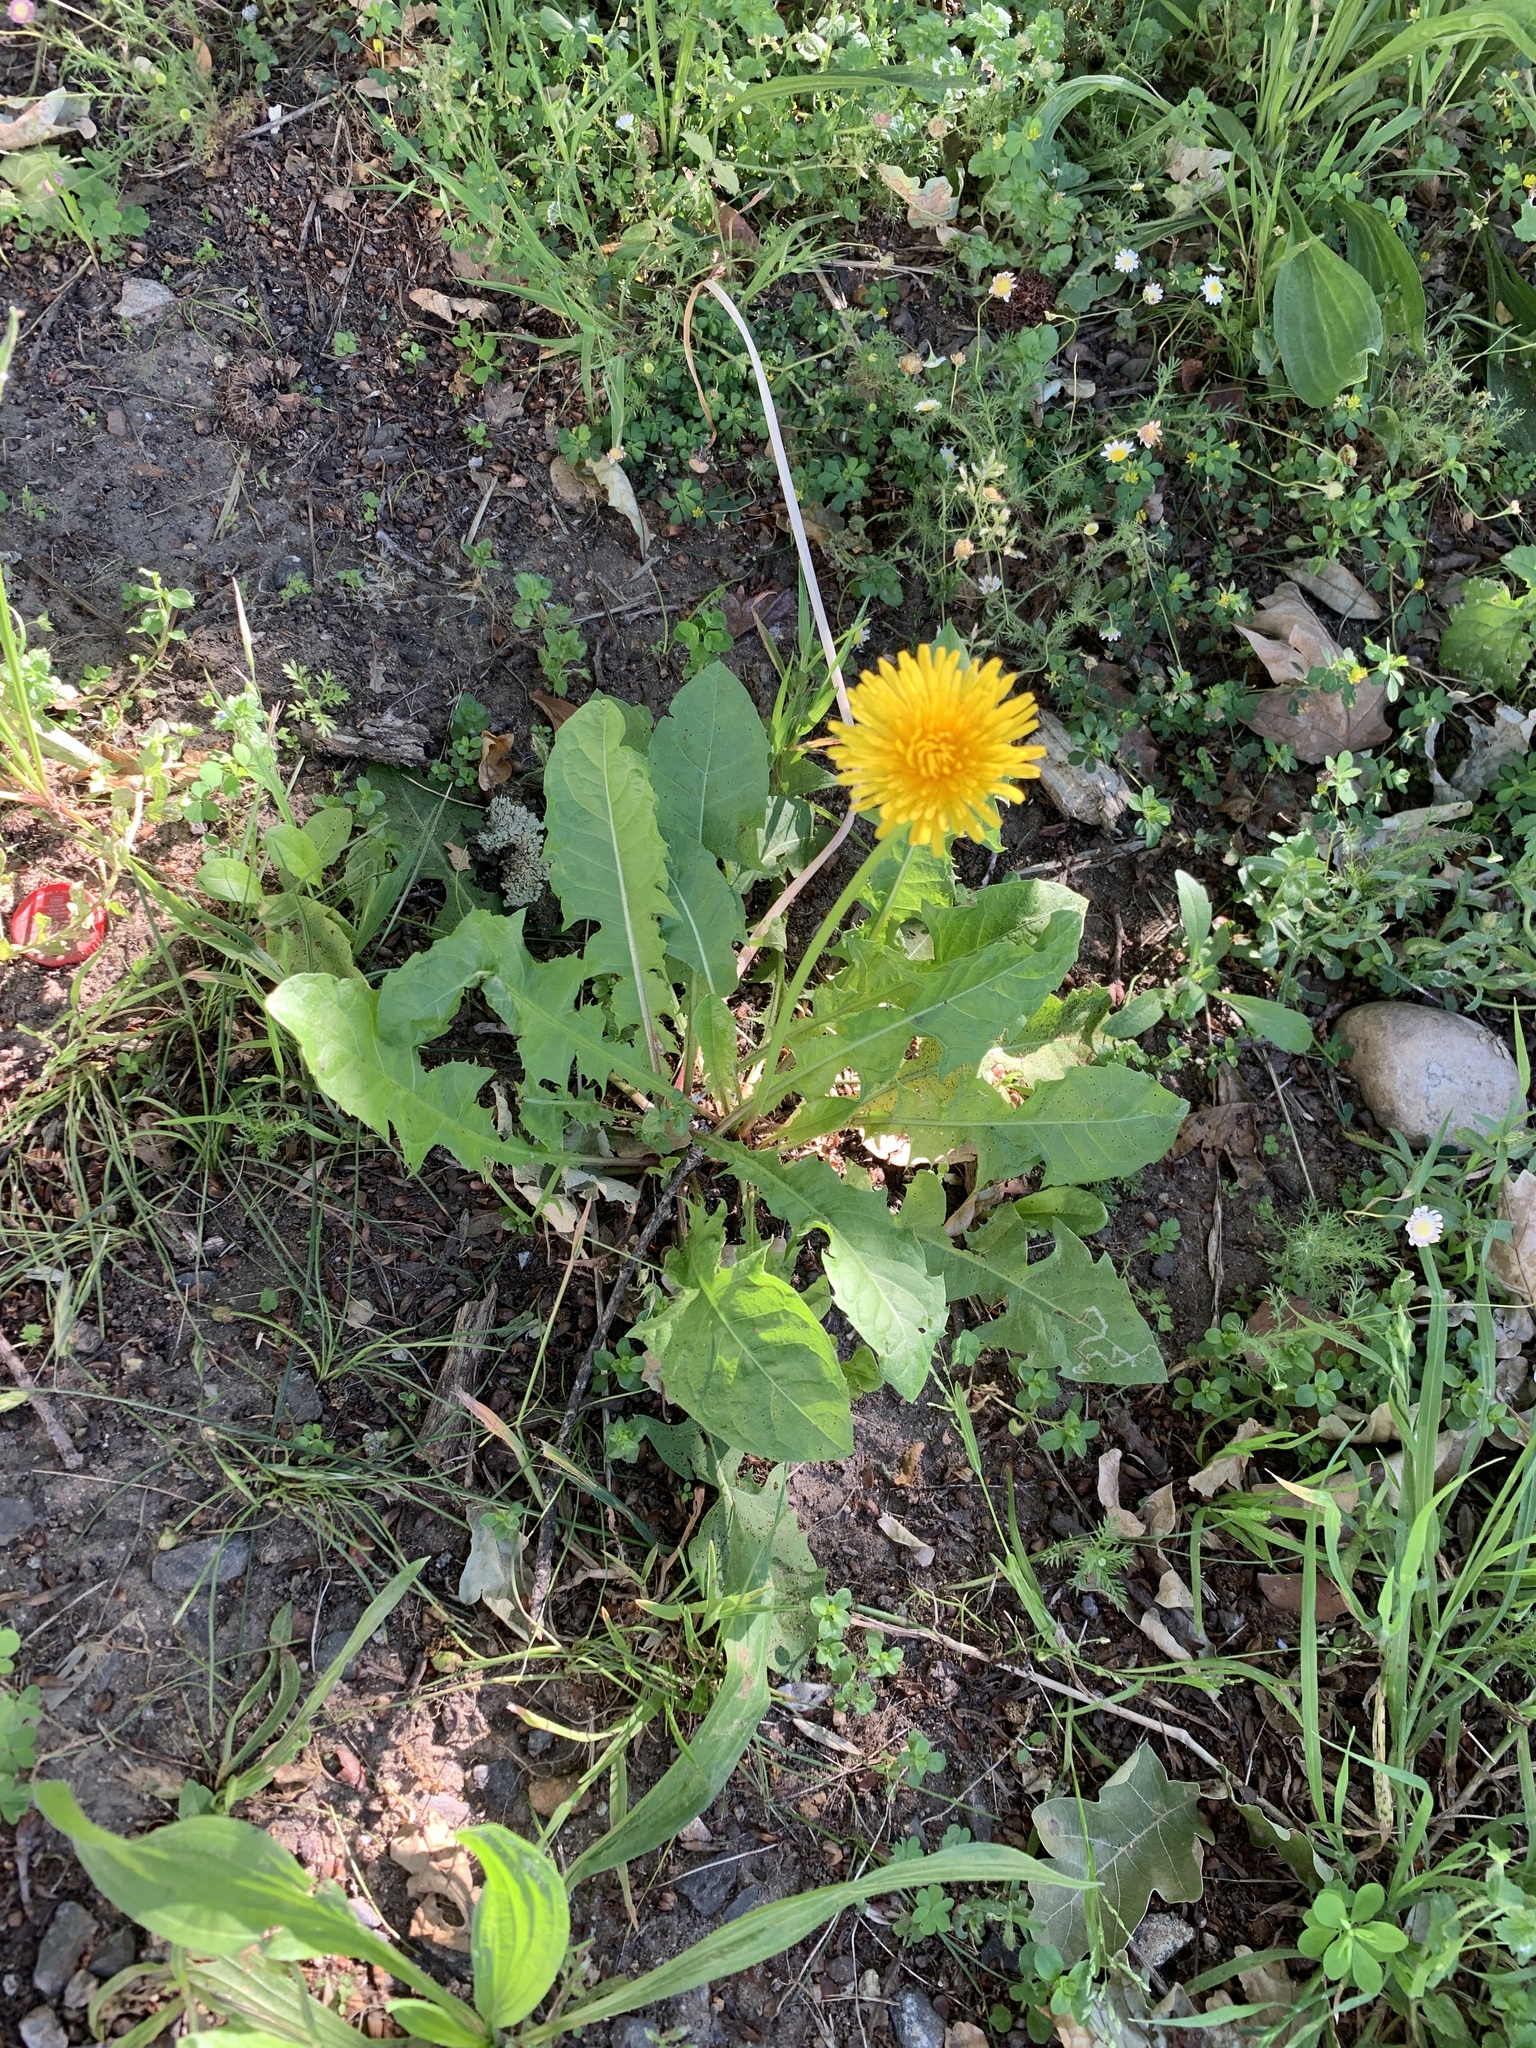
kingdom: Plantae
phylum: Tracheophyta
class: Magnoliopsida
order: Asterales
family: Asteraceae
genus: Taraxacum
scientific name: Taraxacum officinale
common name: Common dandelion
